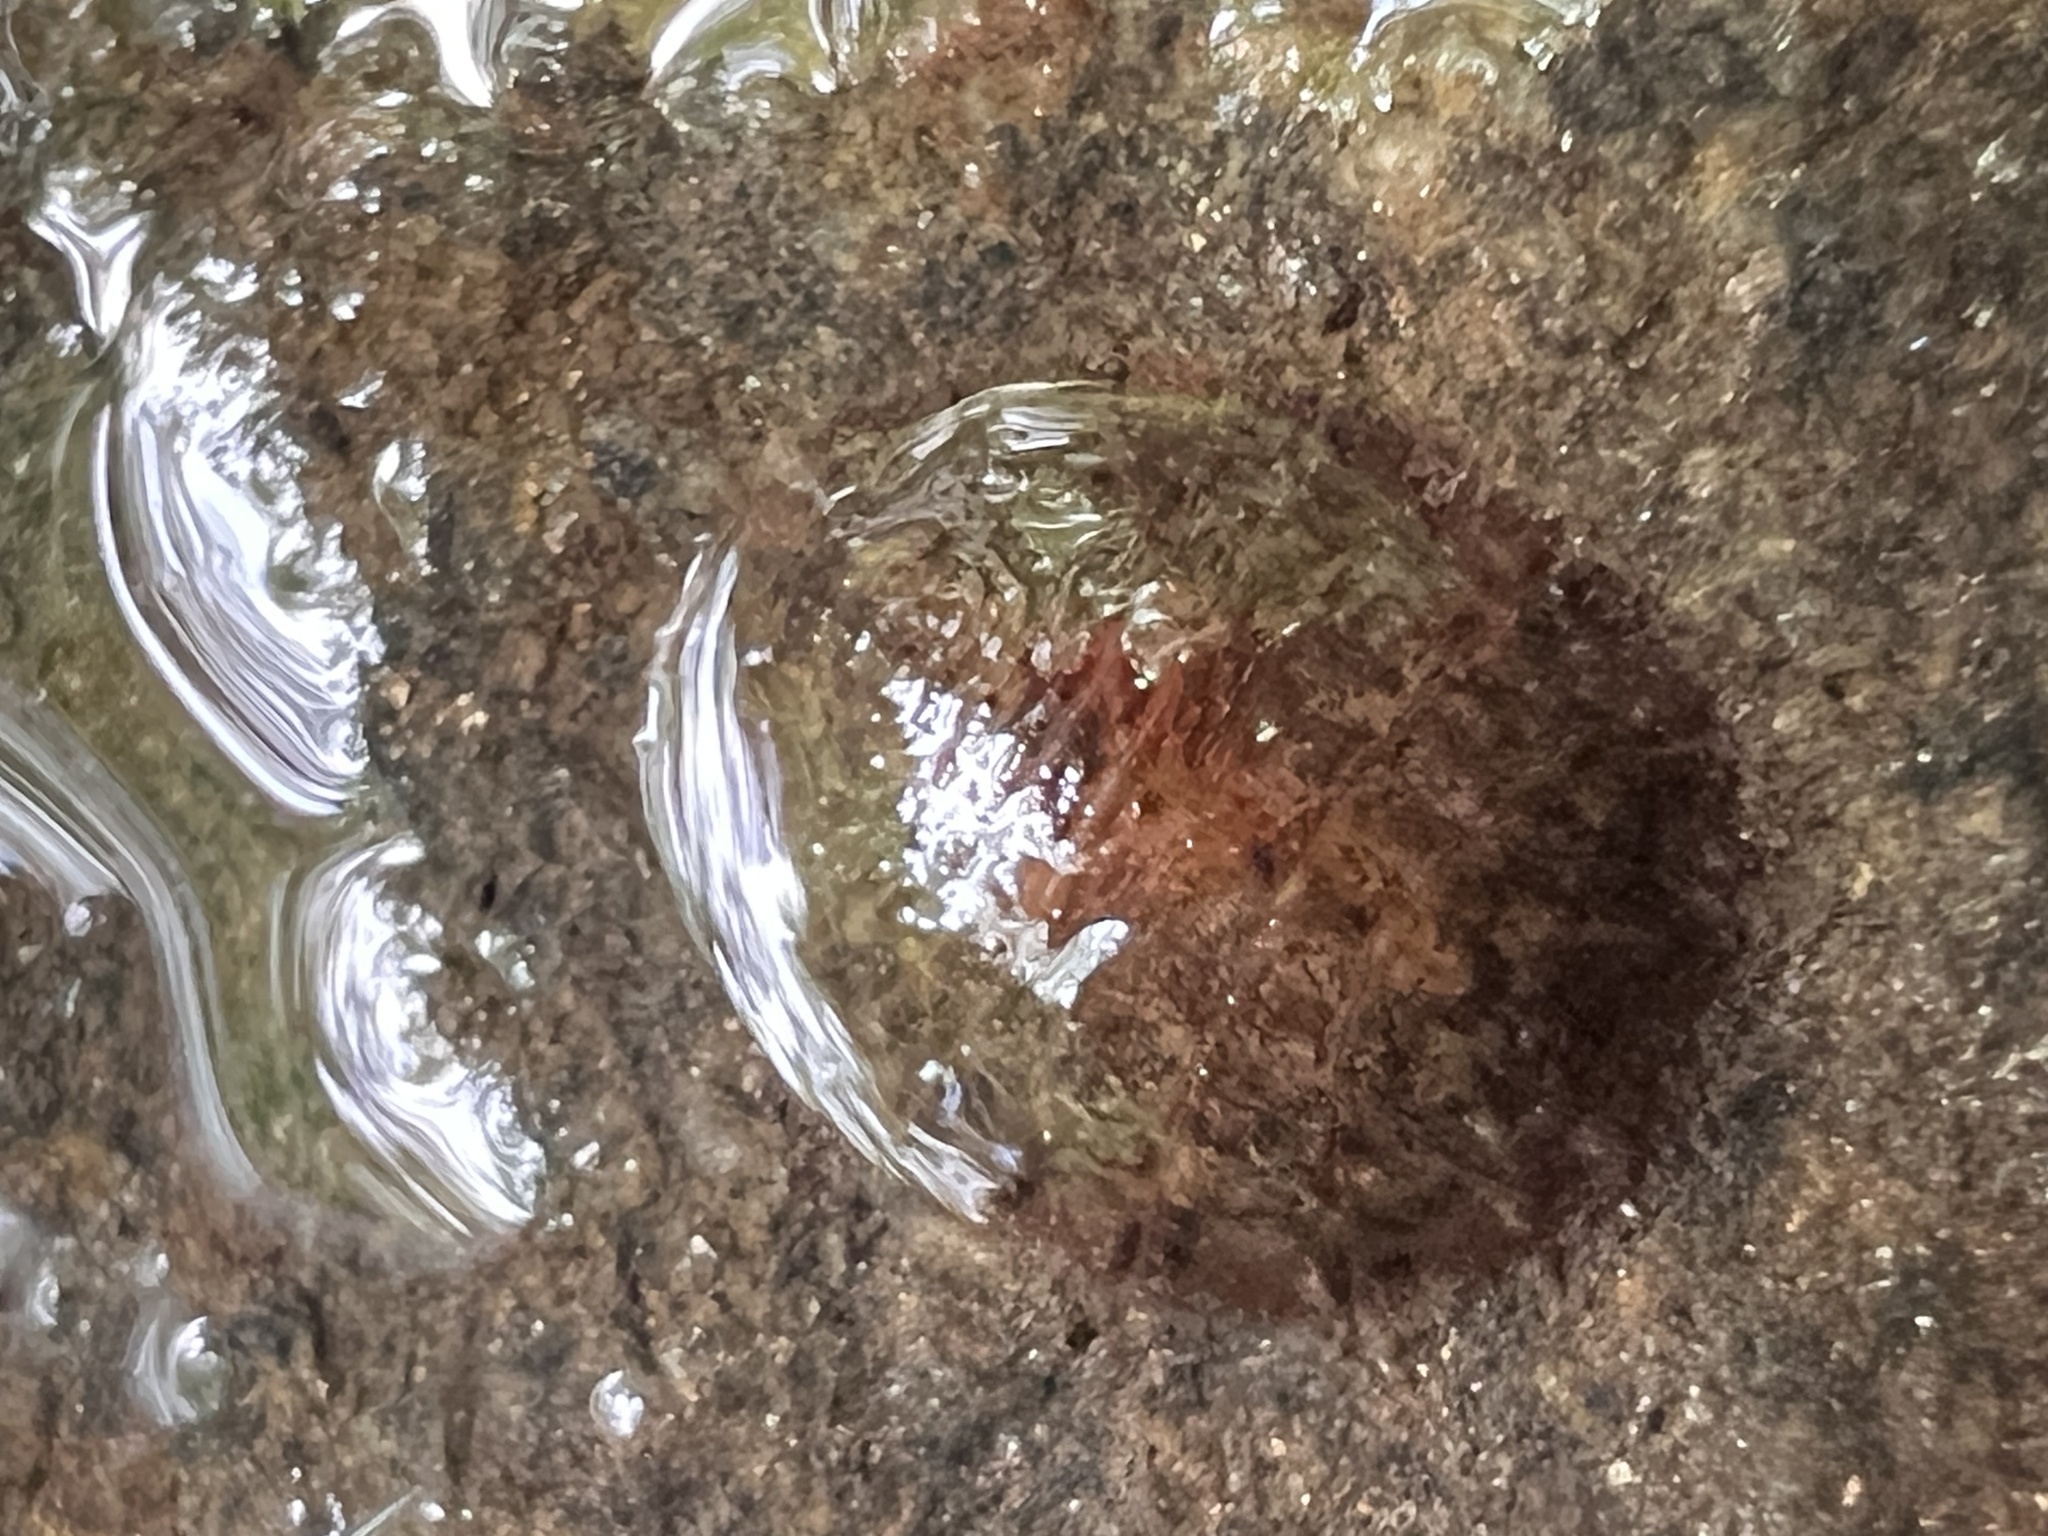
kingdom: Animalia
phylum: Arthropoda
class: Insecta
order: Coleoptera
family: Psephenidae
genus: Psephenus
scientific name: Psephenus herricki
